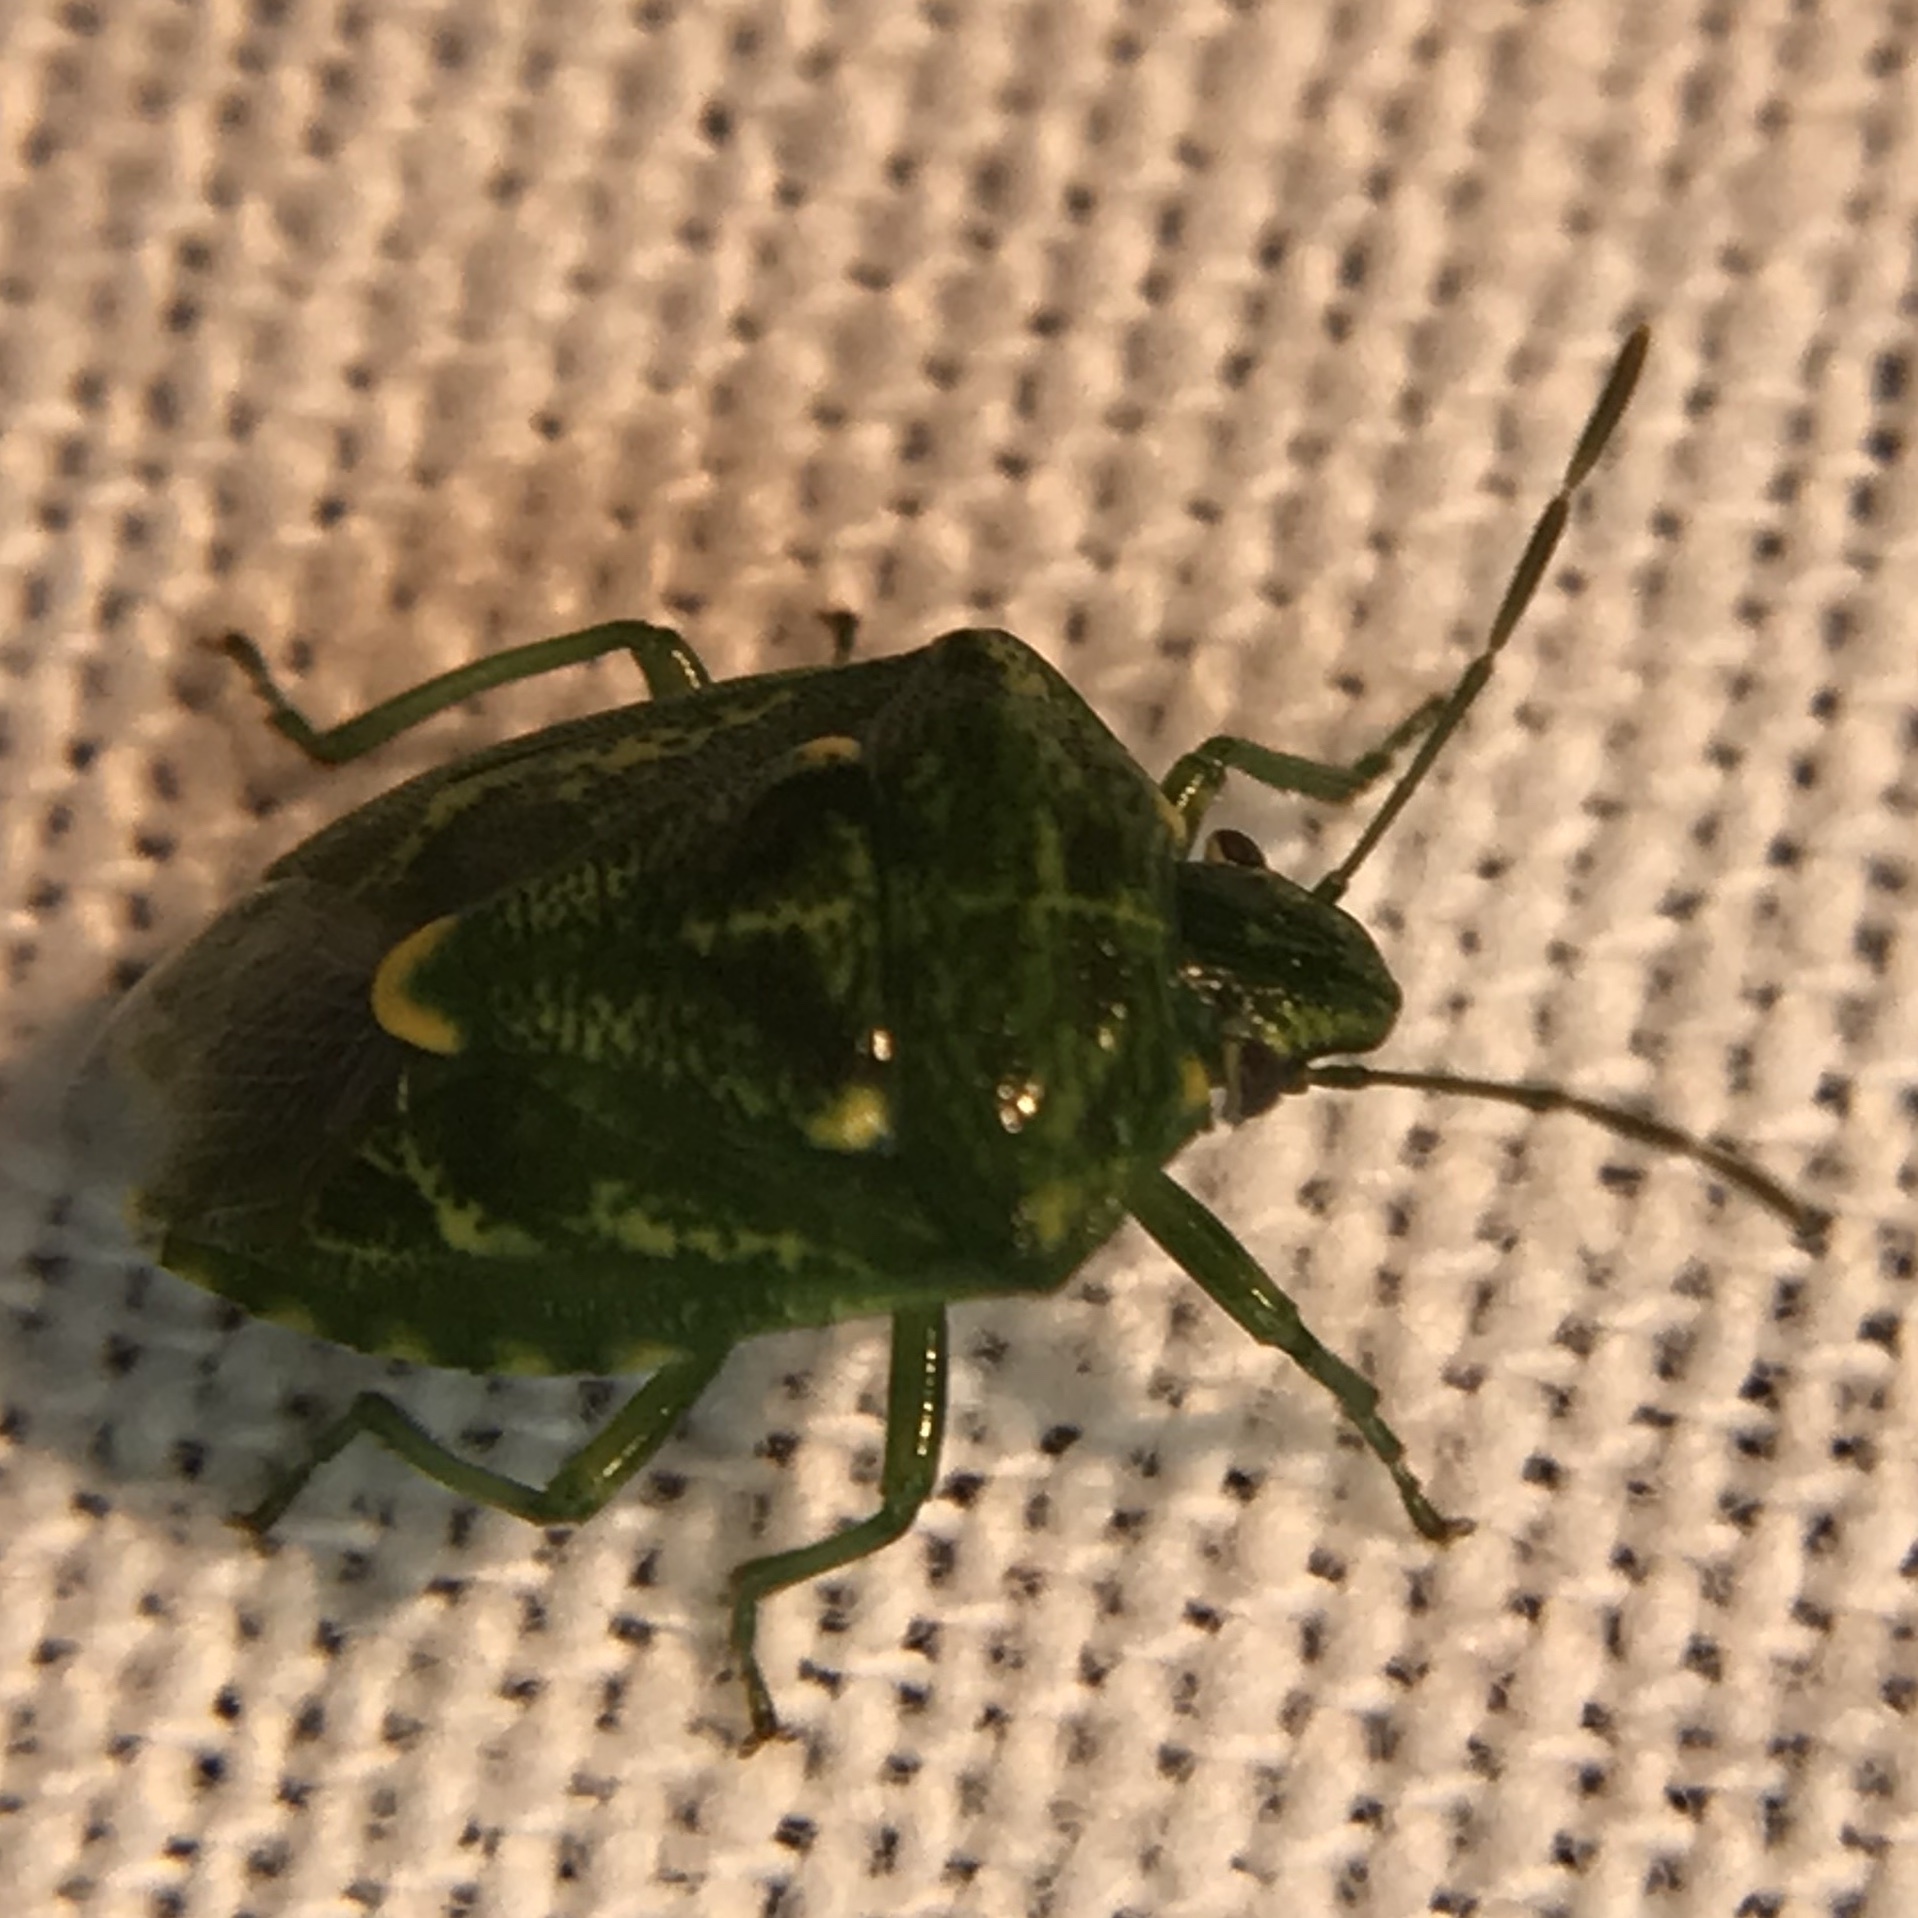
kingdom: Animalia
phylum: Arthropoda
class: Insecta
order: Hemiptera
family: Pentatomidae
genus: Banasa
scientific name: Banasa euchlora
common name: Cedar berry bug
